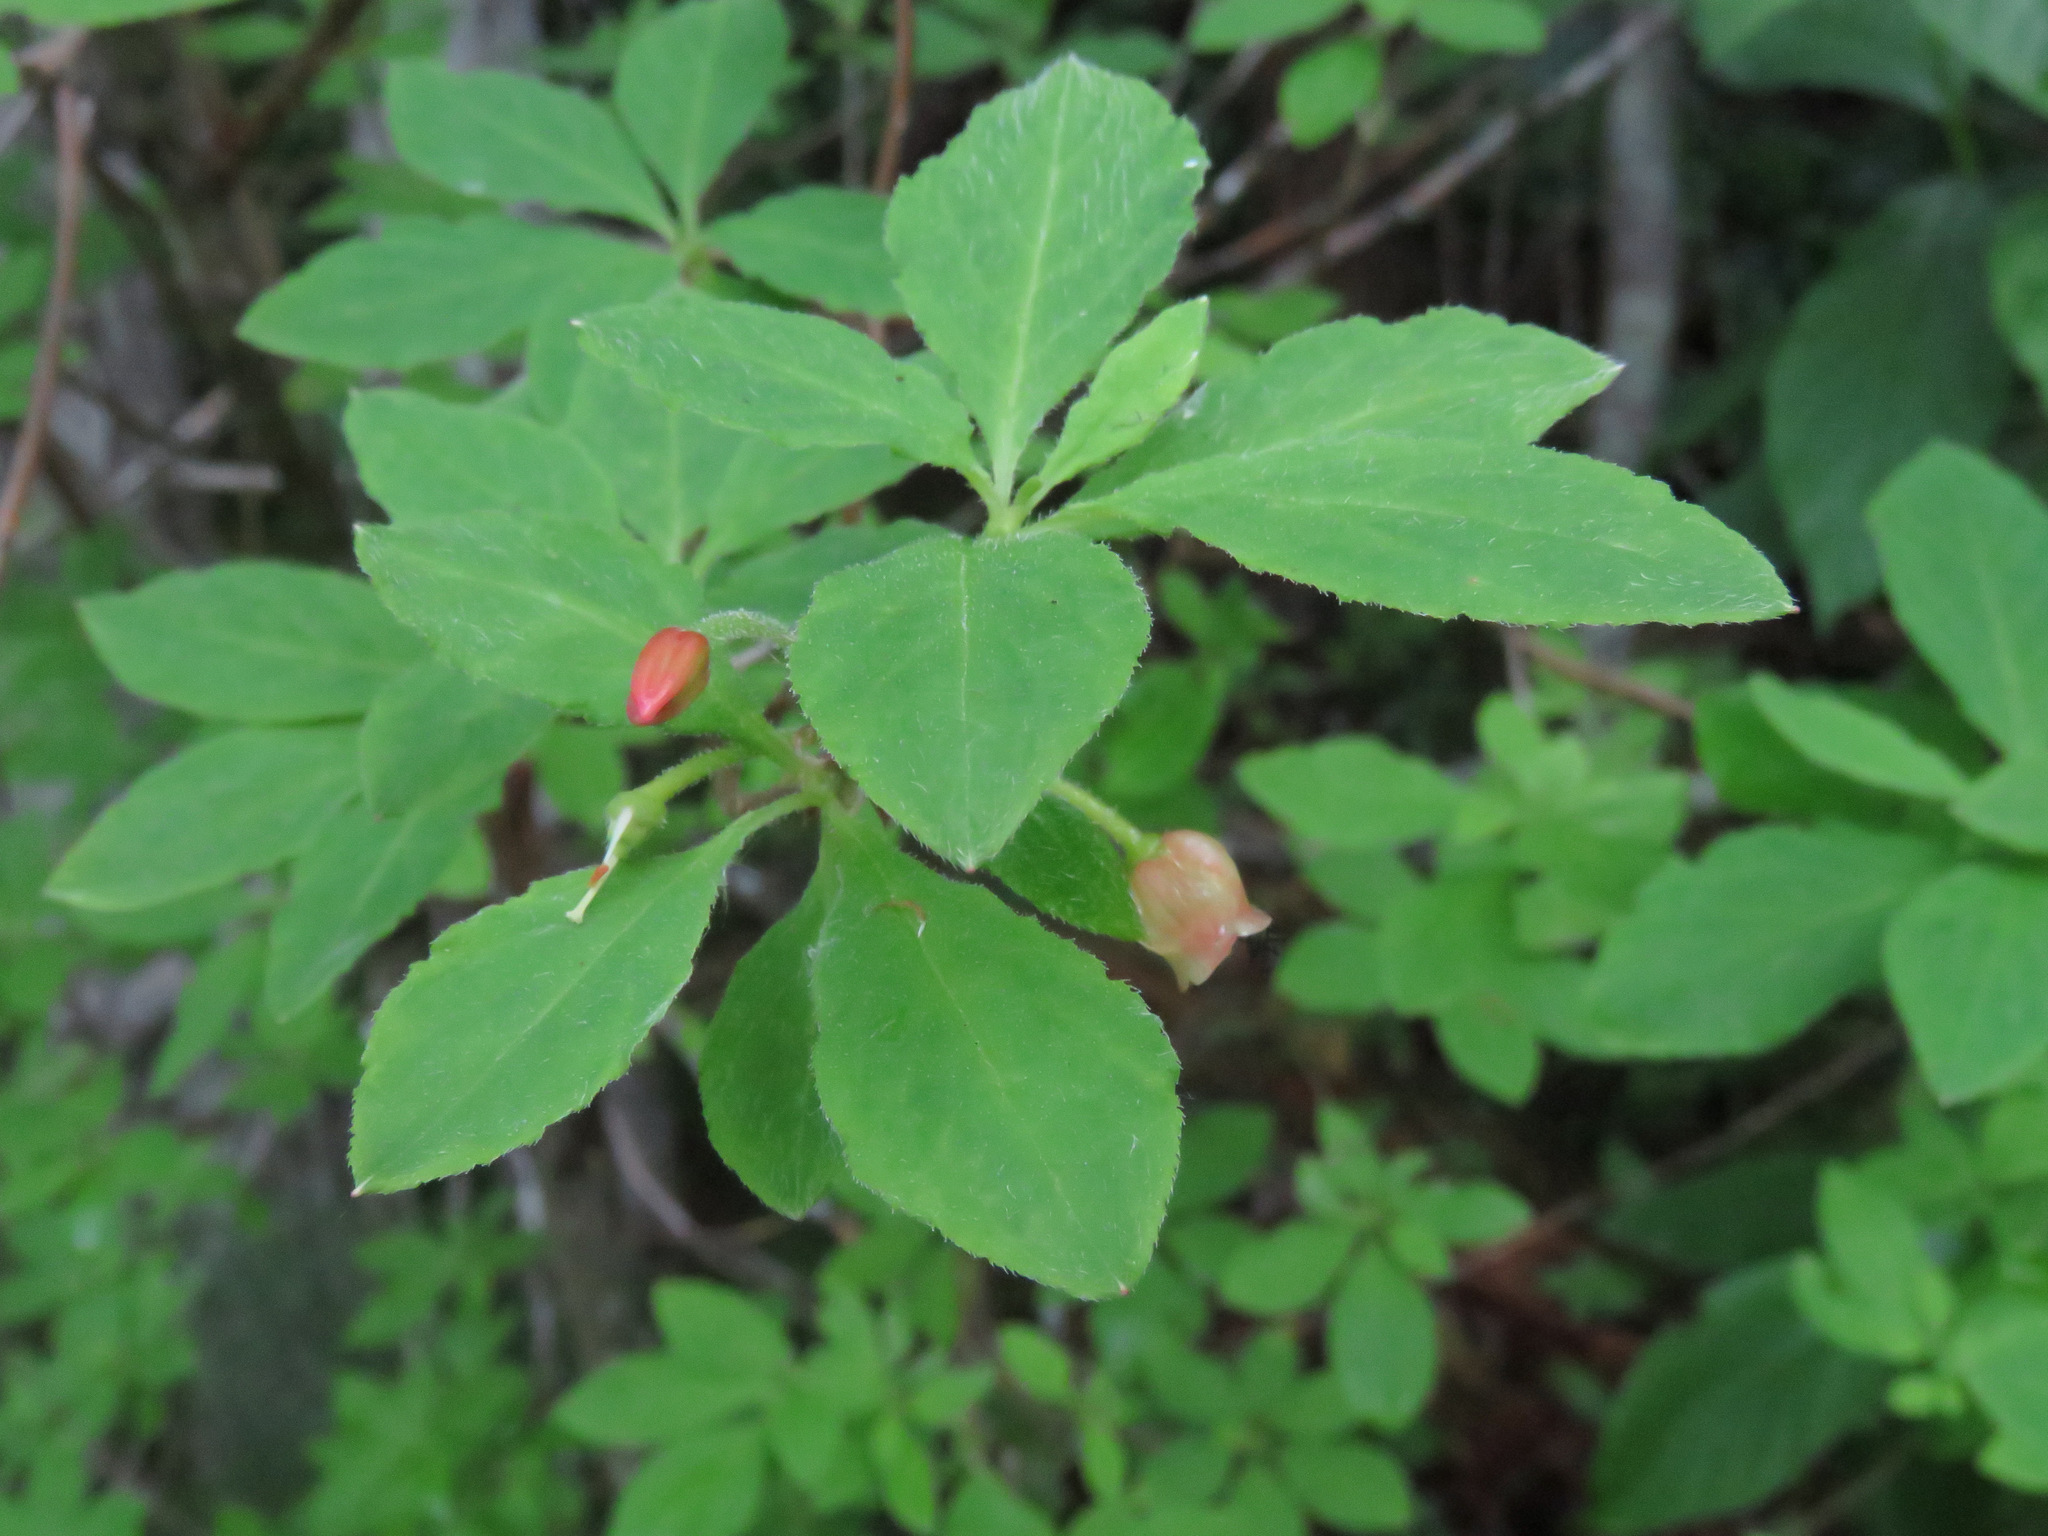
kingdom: Plantae
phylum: Tracheophyta
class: Magnoliopsida
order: Ericales
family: Ericaceae
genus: Rhododendron
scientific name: Rhododendron menziesii
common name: Pacific menziesia
